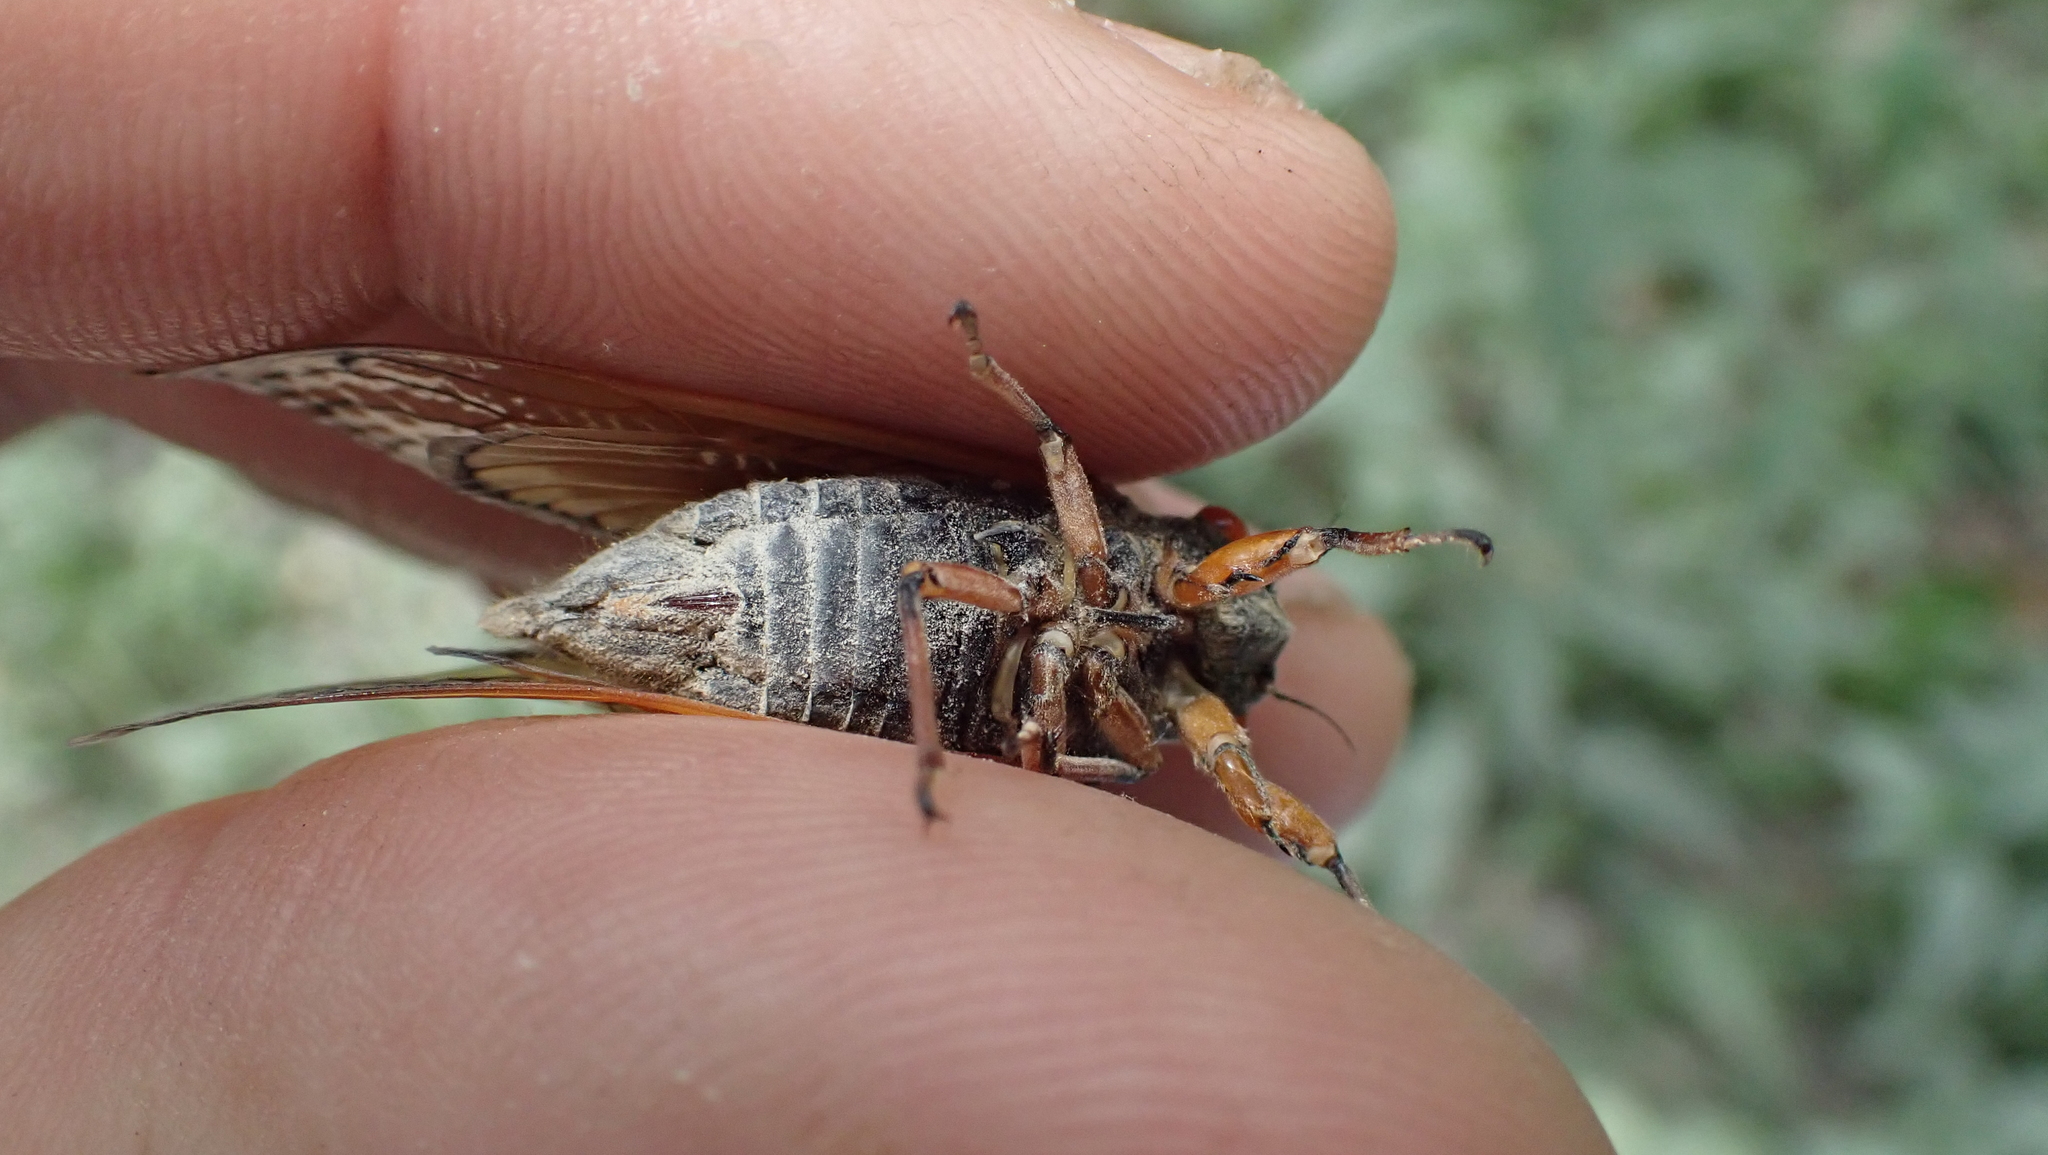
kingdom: Animalia
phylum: Arthropoda
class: Insecta
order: Hemiptera
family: Cicadidae
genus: Magicicada
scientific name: Magicicada cassini
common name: Cassin's 17-year cicada
